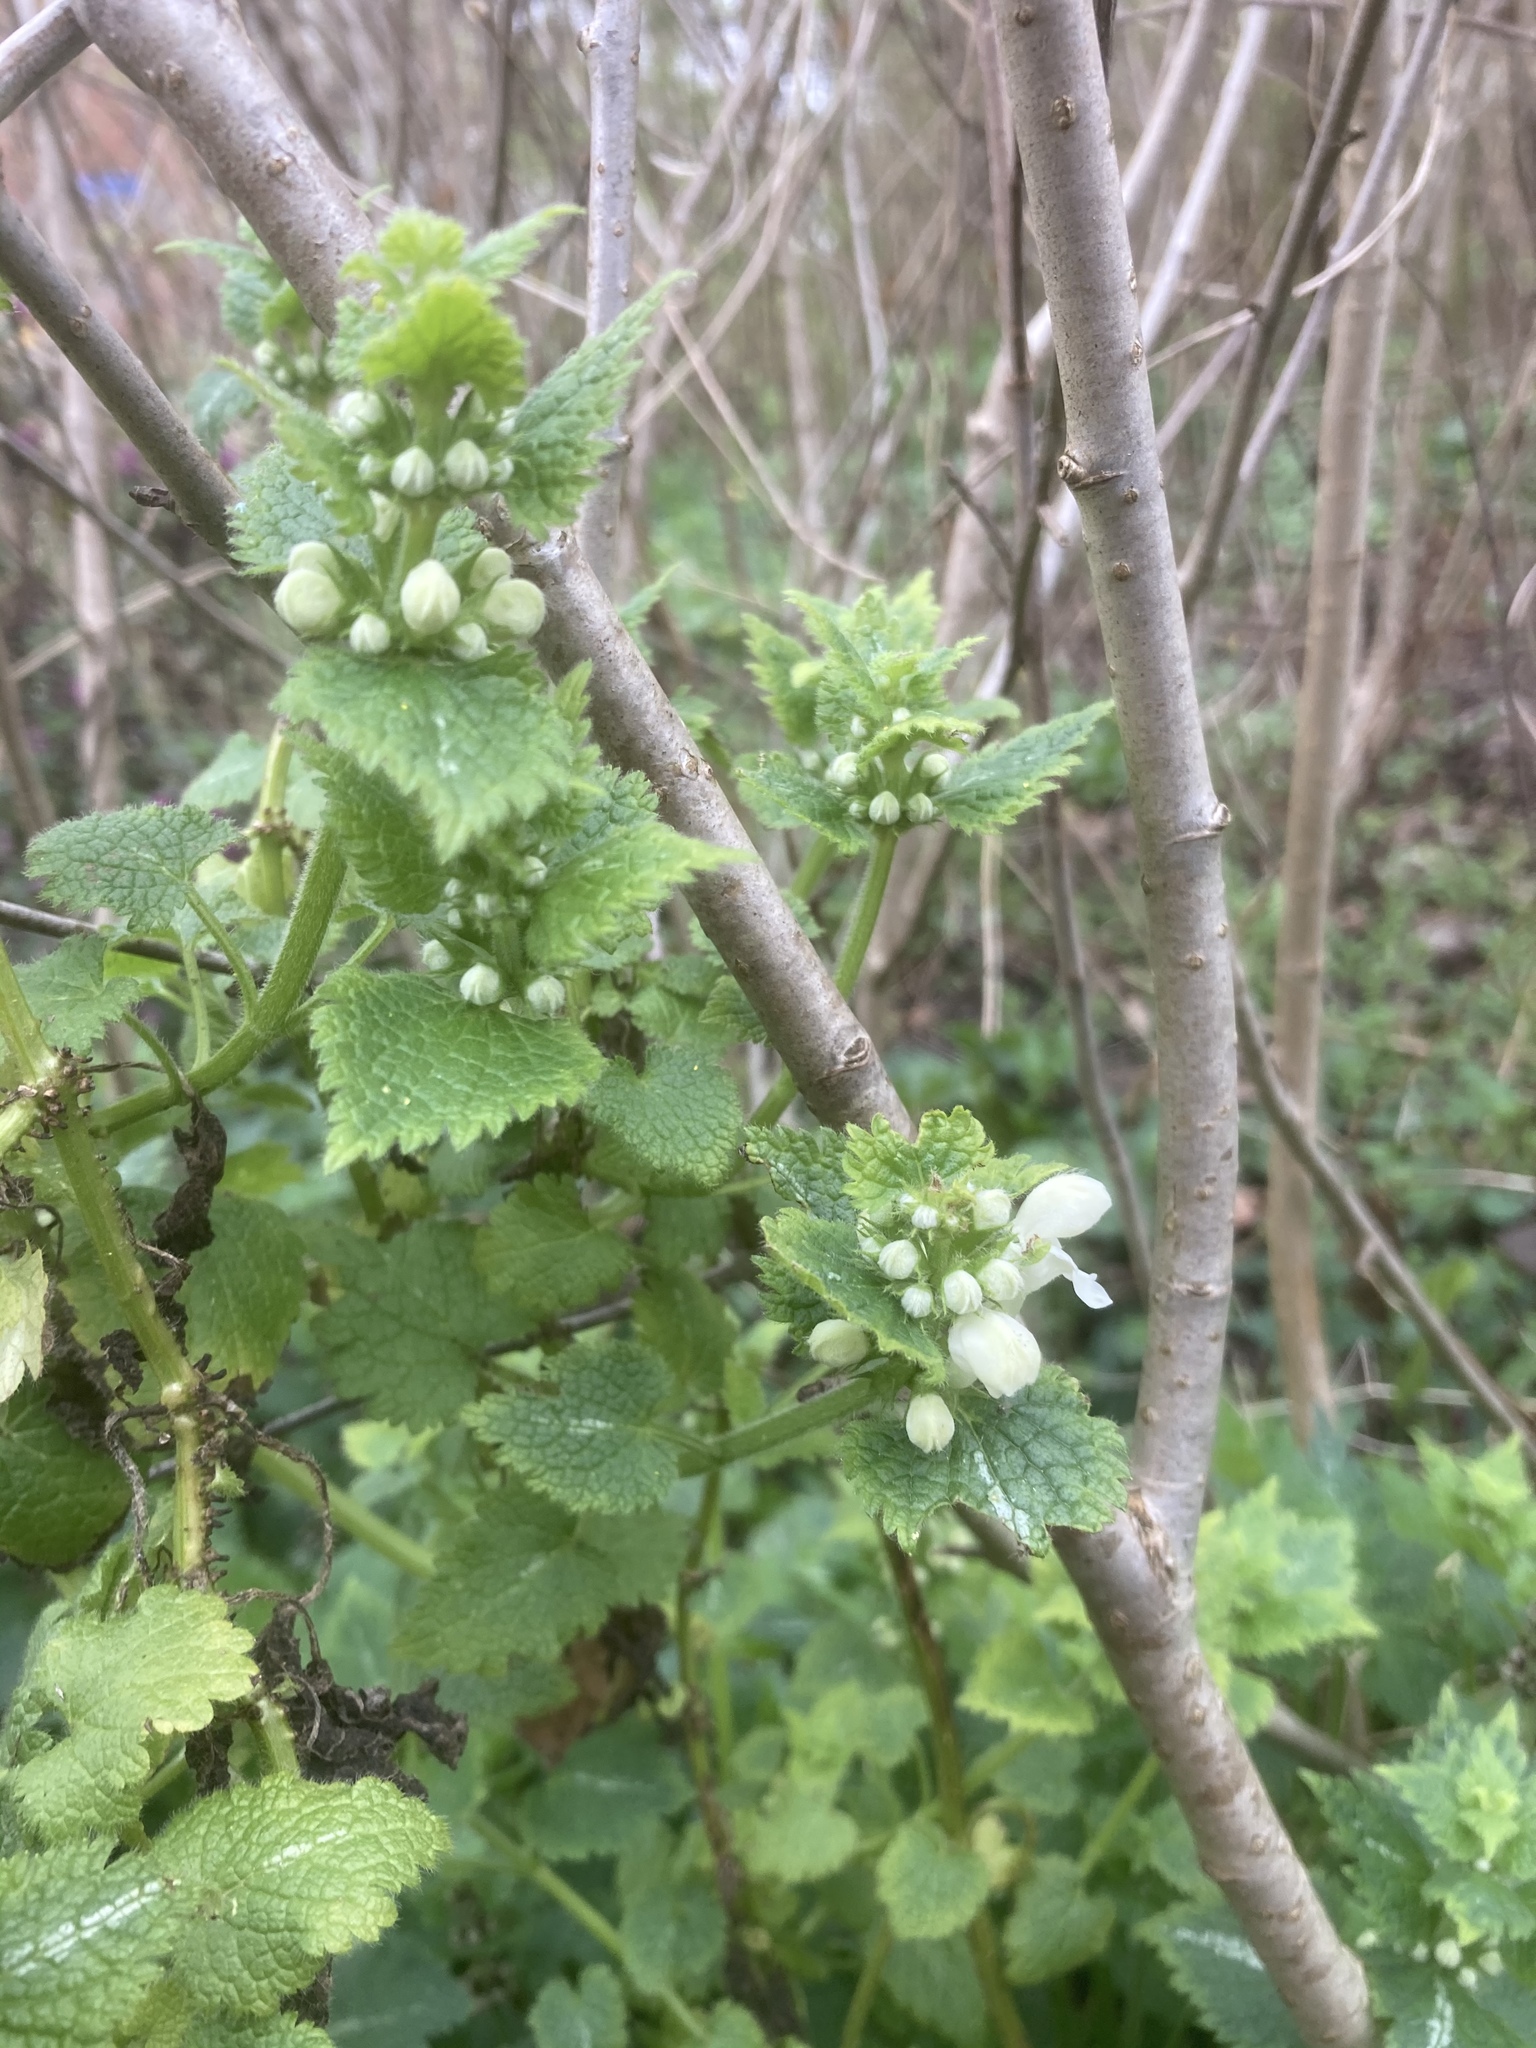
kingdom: Plantae
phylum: Tracheophyta
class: Magnoliopsida
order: Lamiales
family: Lamiaceae
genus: Lamium
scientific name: Lamium album
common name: White dead-nettle
